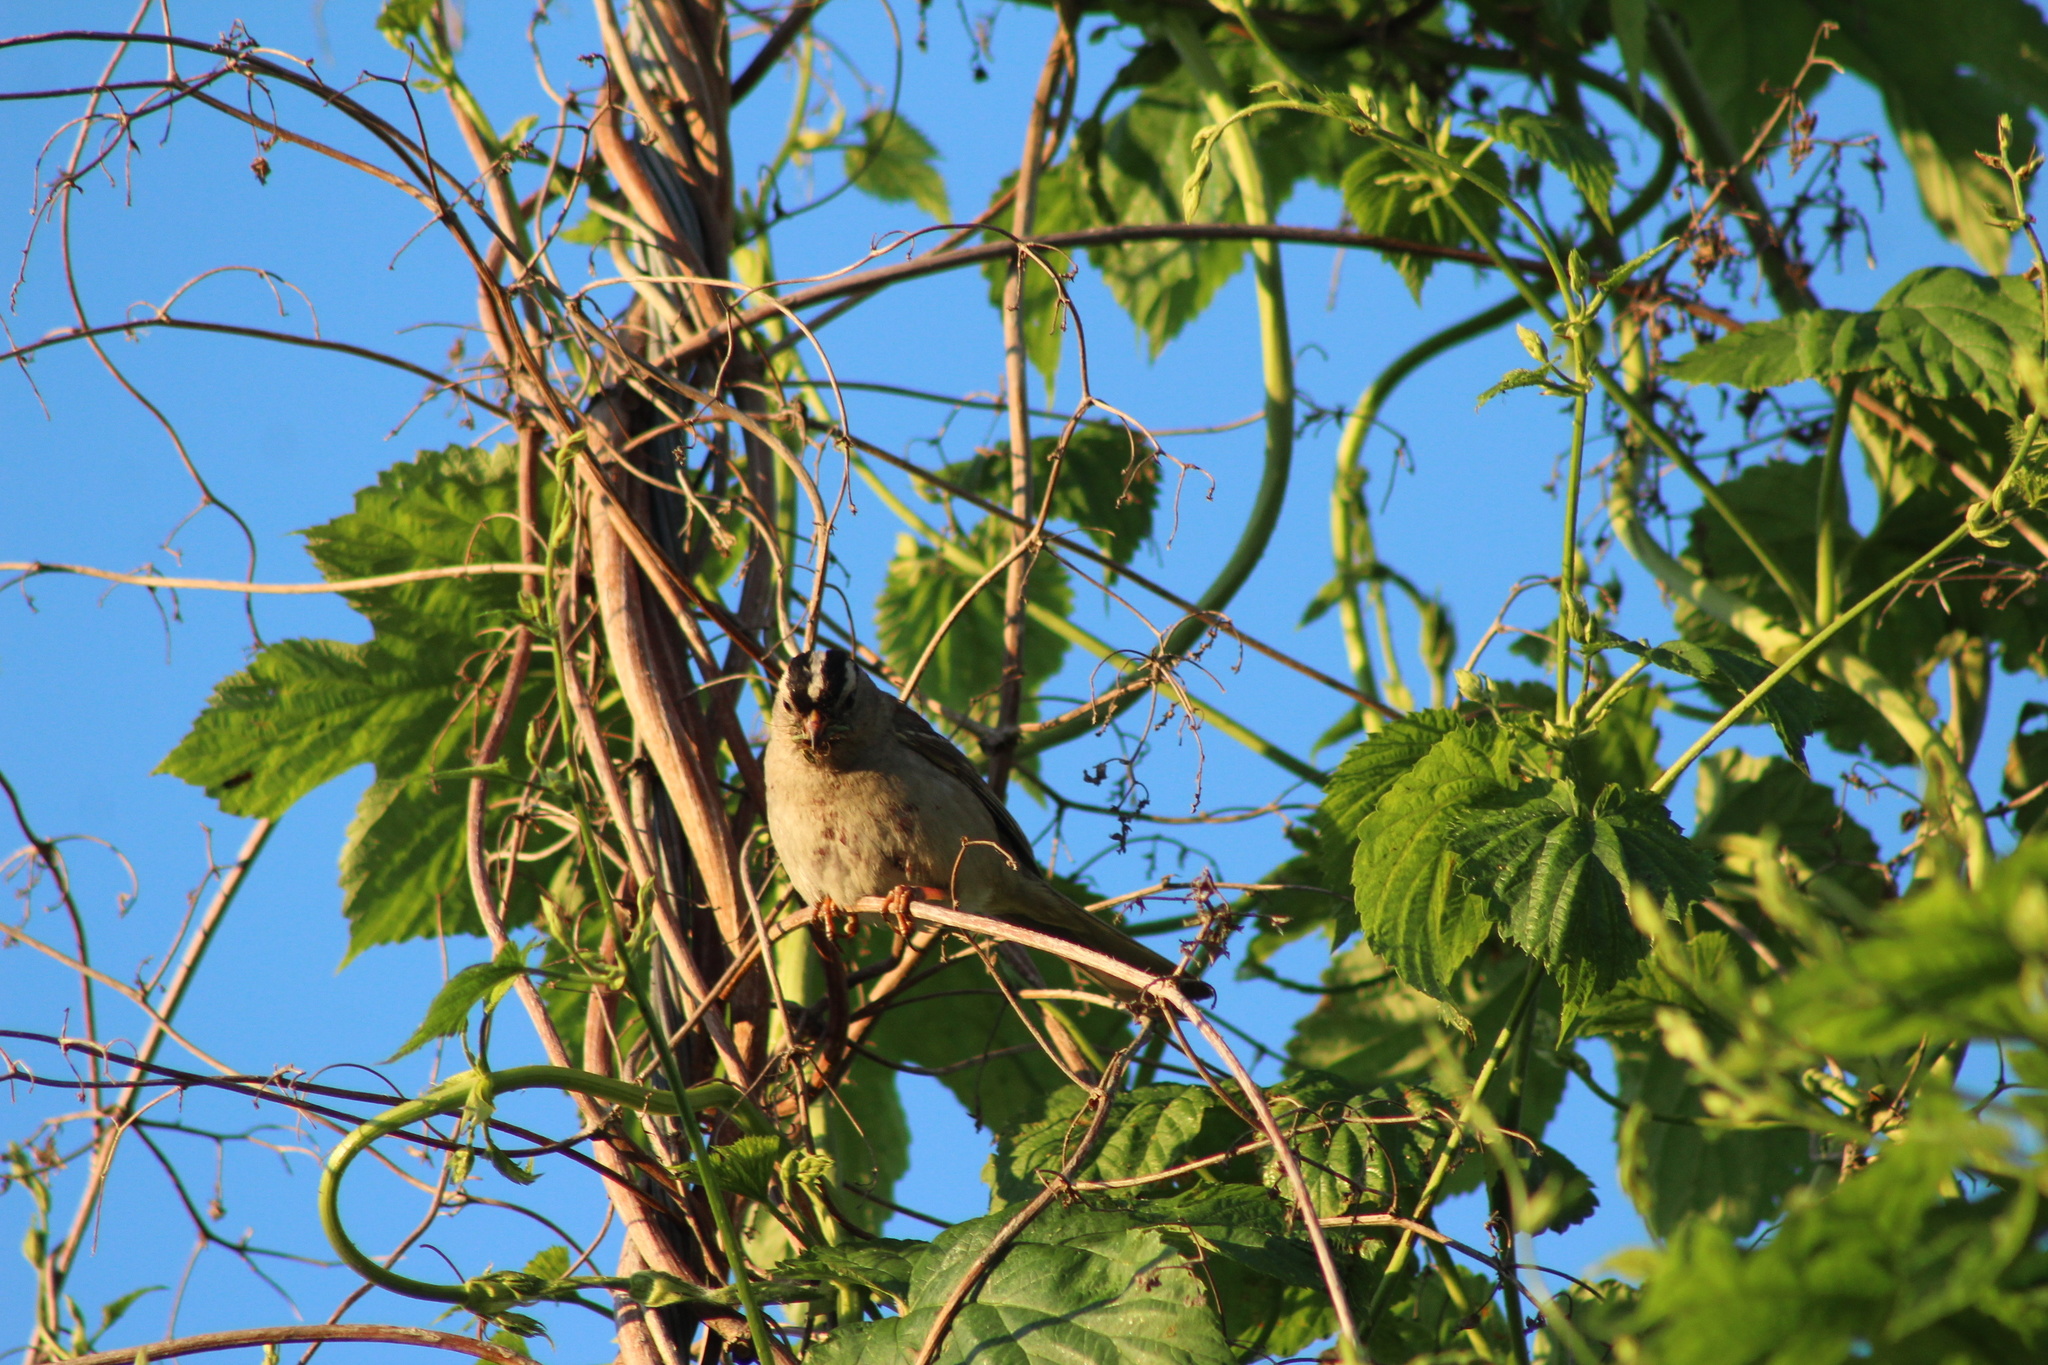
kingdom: Animalia
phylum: Chordata
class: Aves
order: Passeriformes
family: Passerellidae
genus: Zonotrichia
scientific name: Zonotrichia leucophrys
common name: White-crowned sparrow
